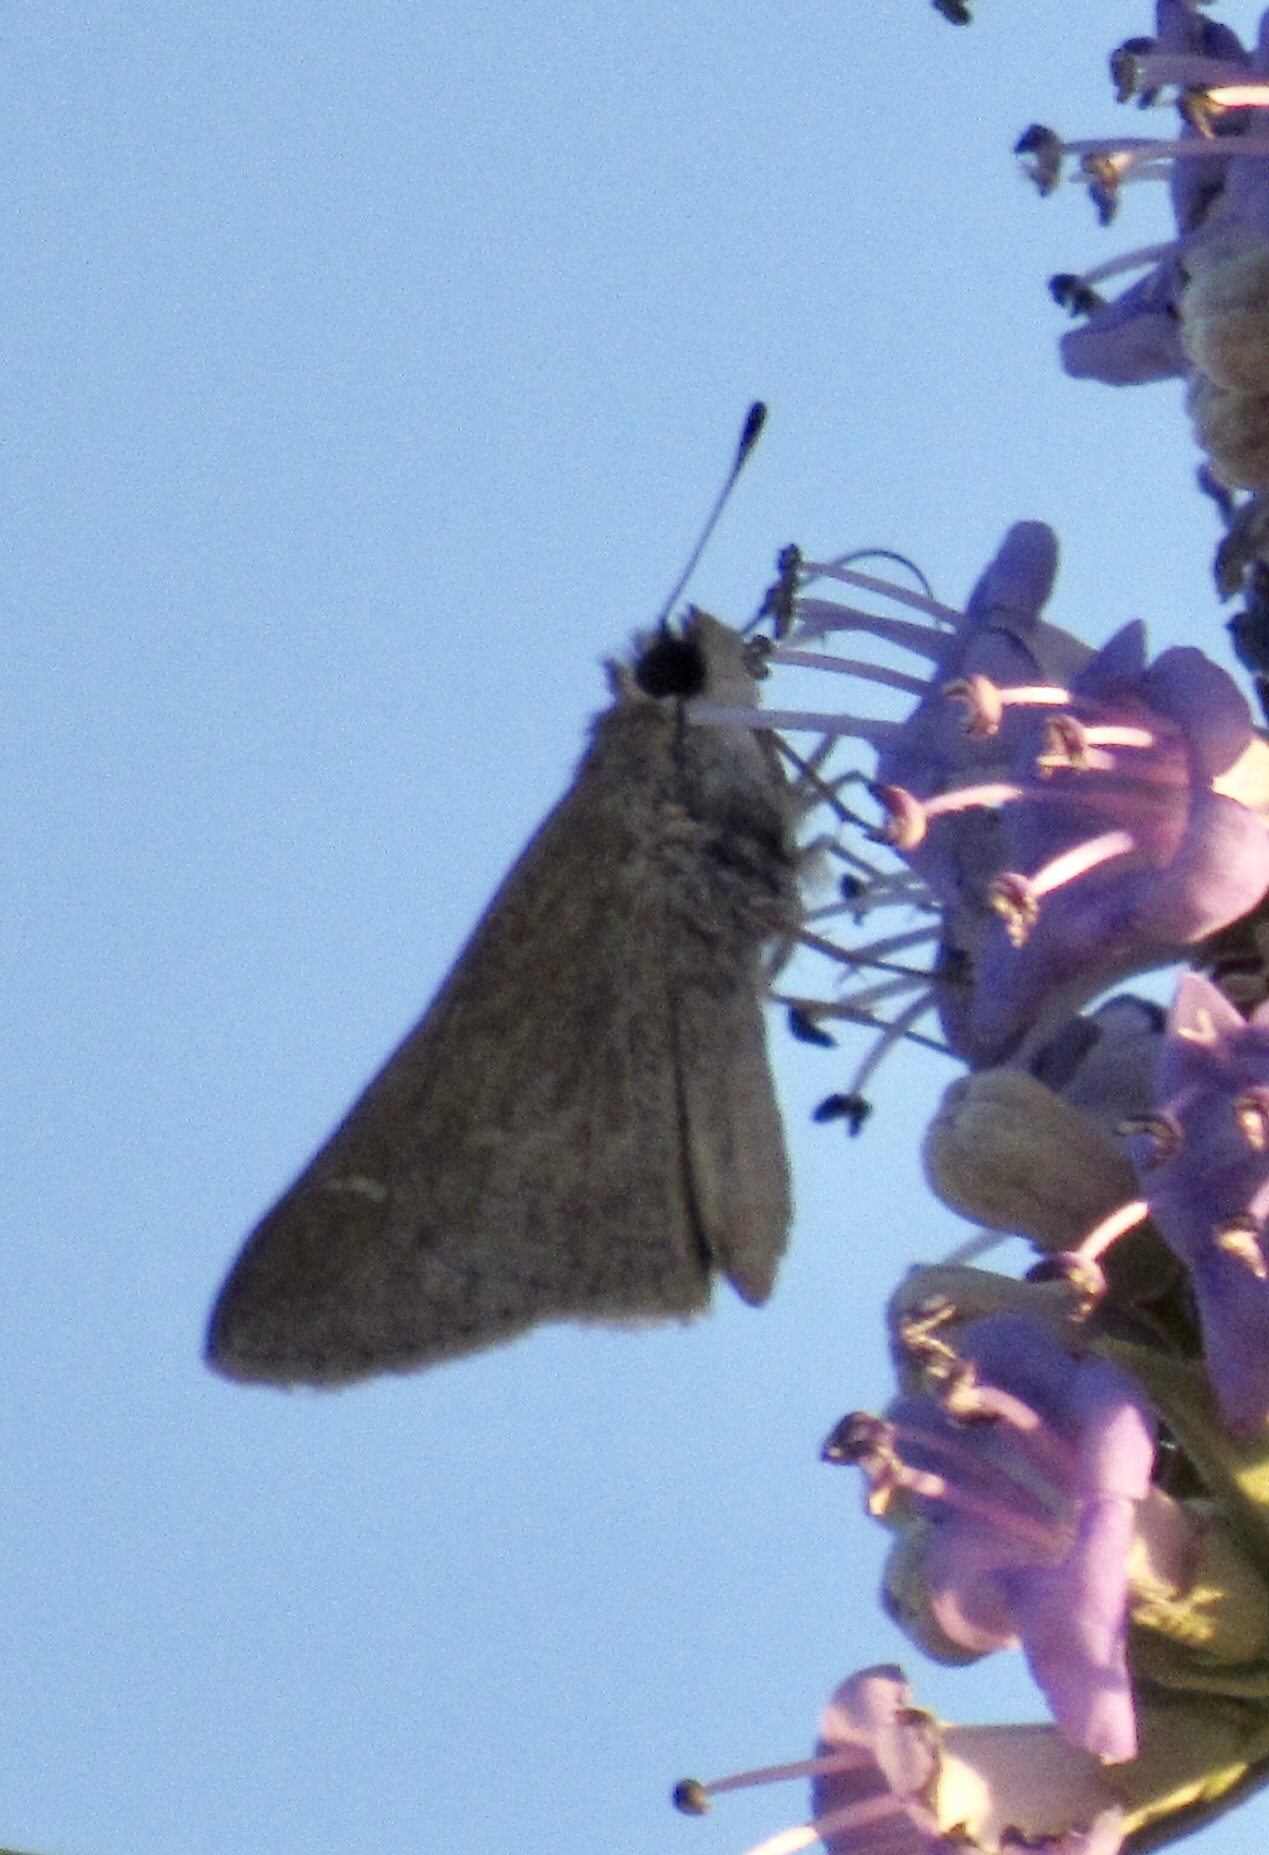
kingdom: Animalia
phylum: Arthropoda
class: Insecta
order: Lepidoptera
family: Hesperiidae
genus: Lerodea
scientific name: Lerodea eufala
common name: Eufala skipper
